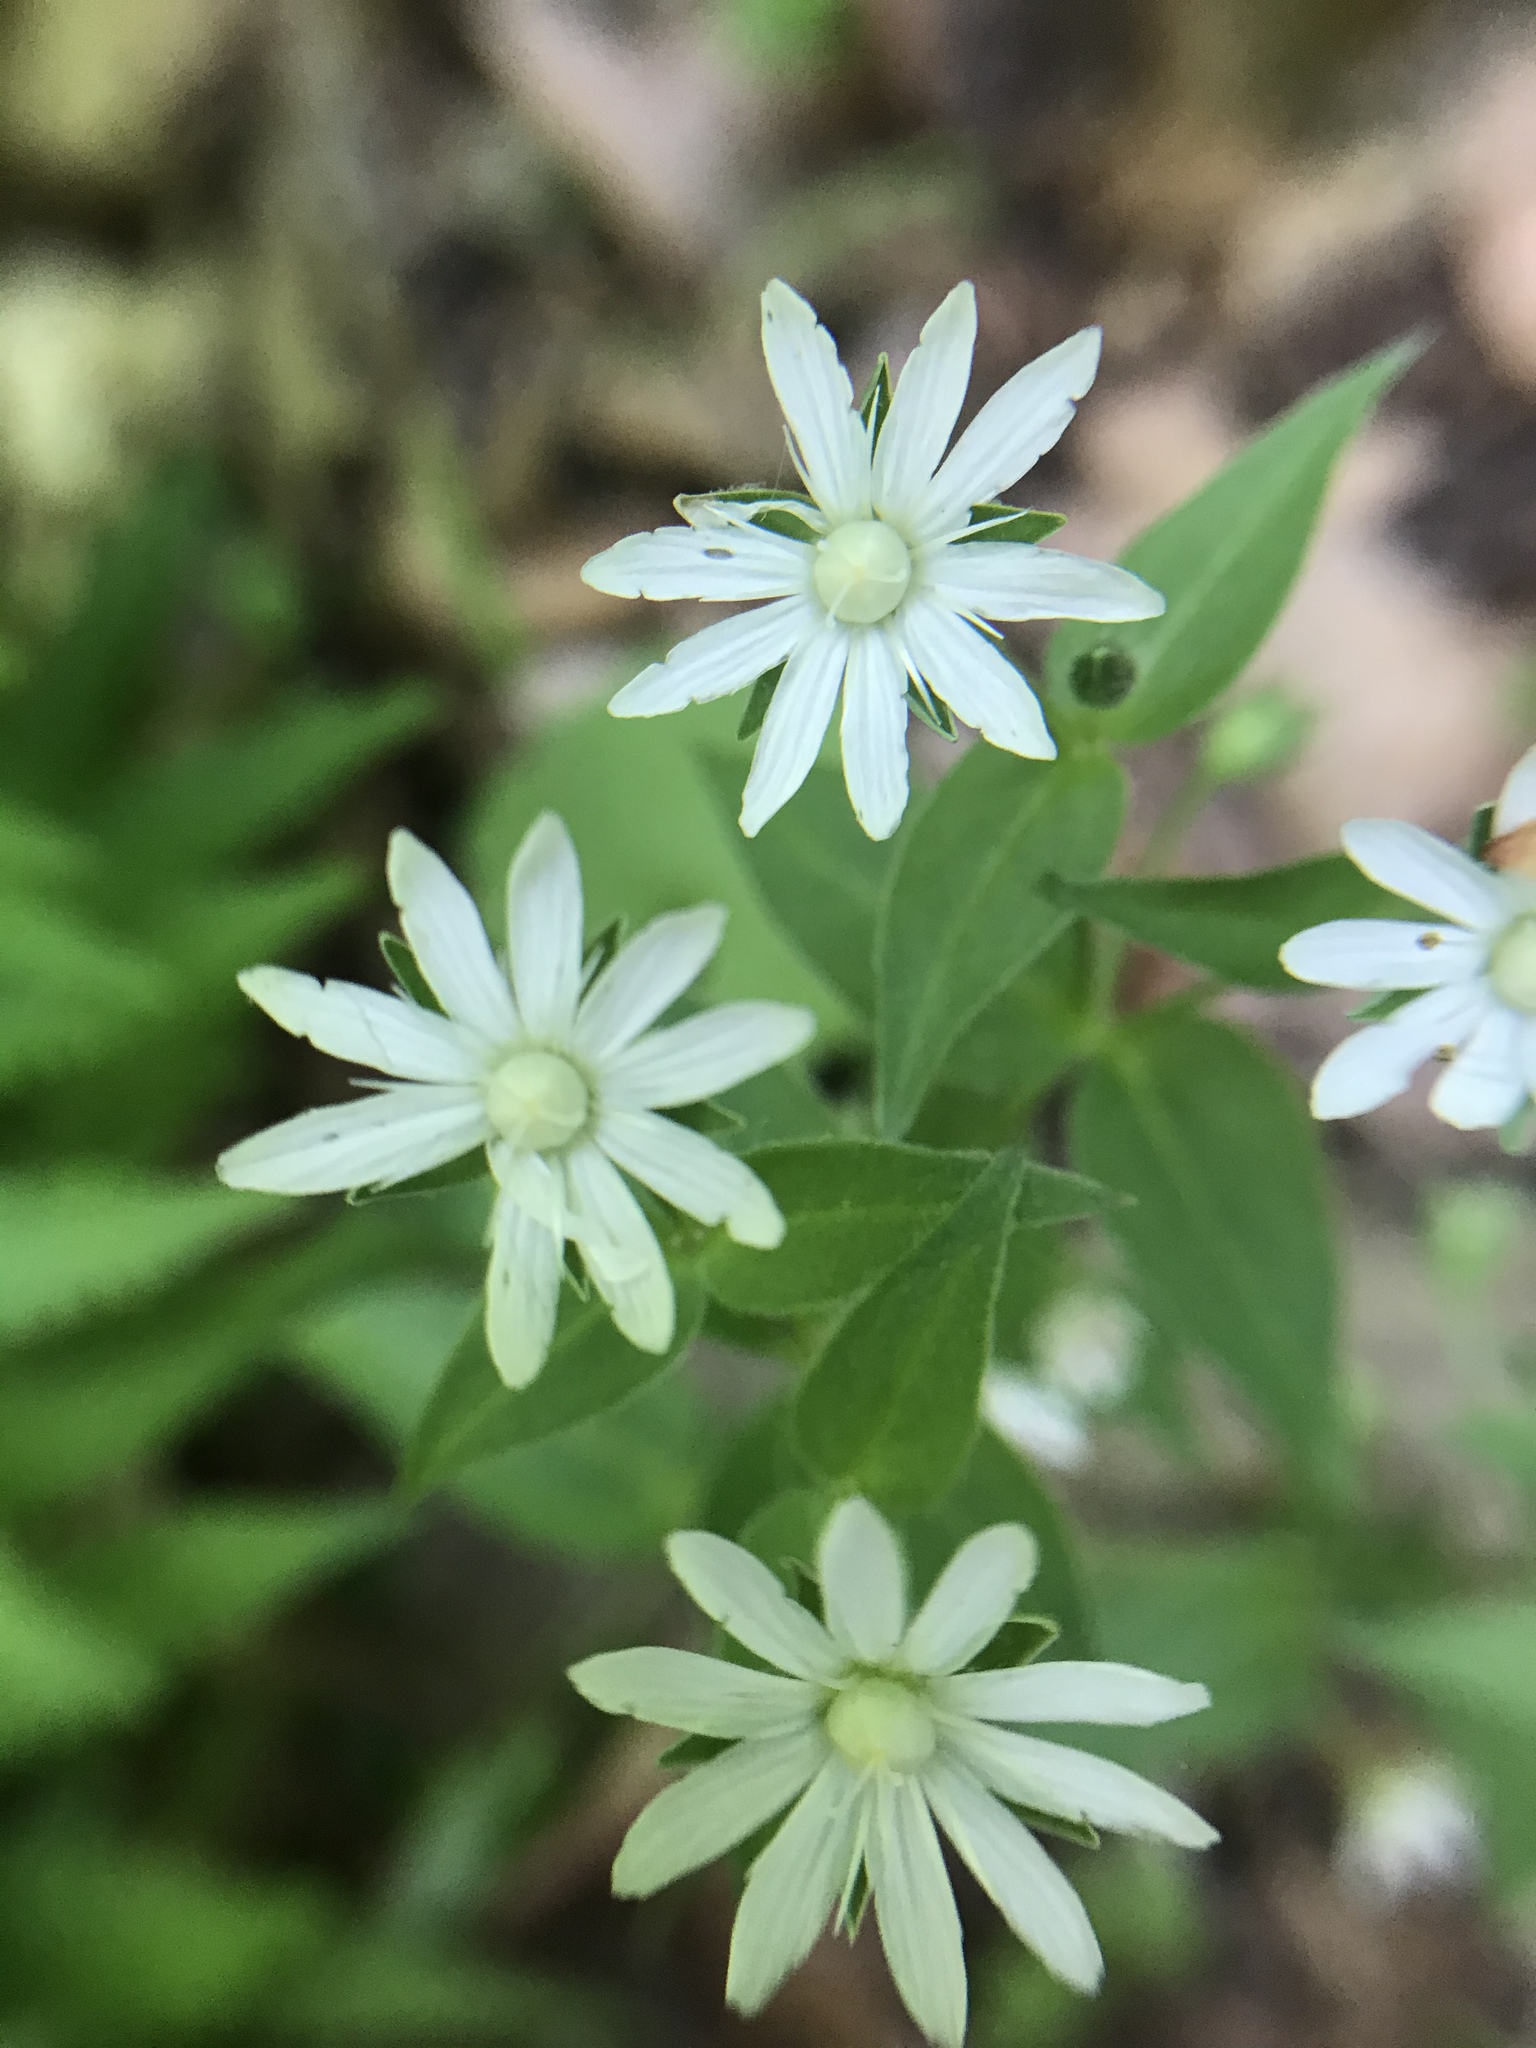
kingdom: Plantae
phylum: Tracheophyta
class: Magnoliopsida
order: Caryophyllales
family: Caryophyllaceae
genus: Stellaria
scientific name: Stellaria pubera
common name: Star chickweed
